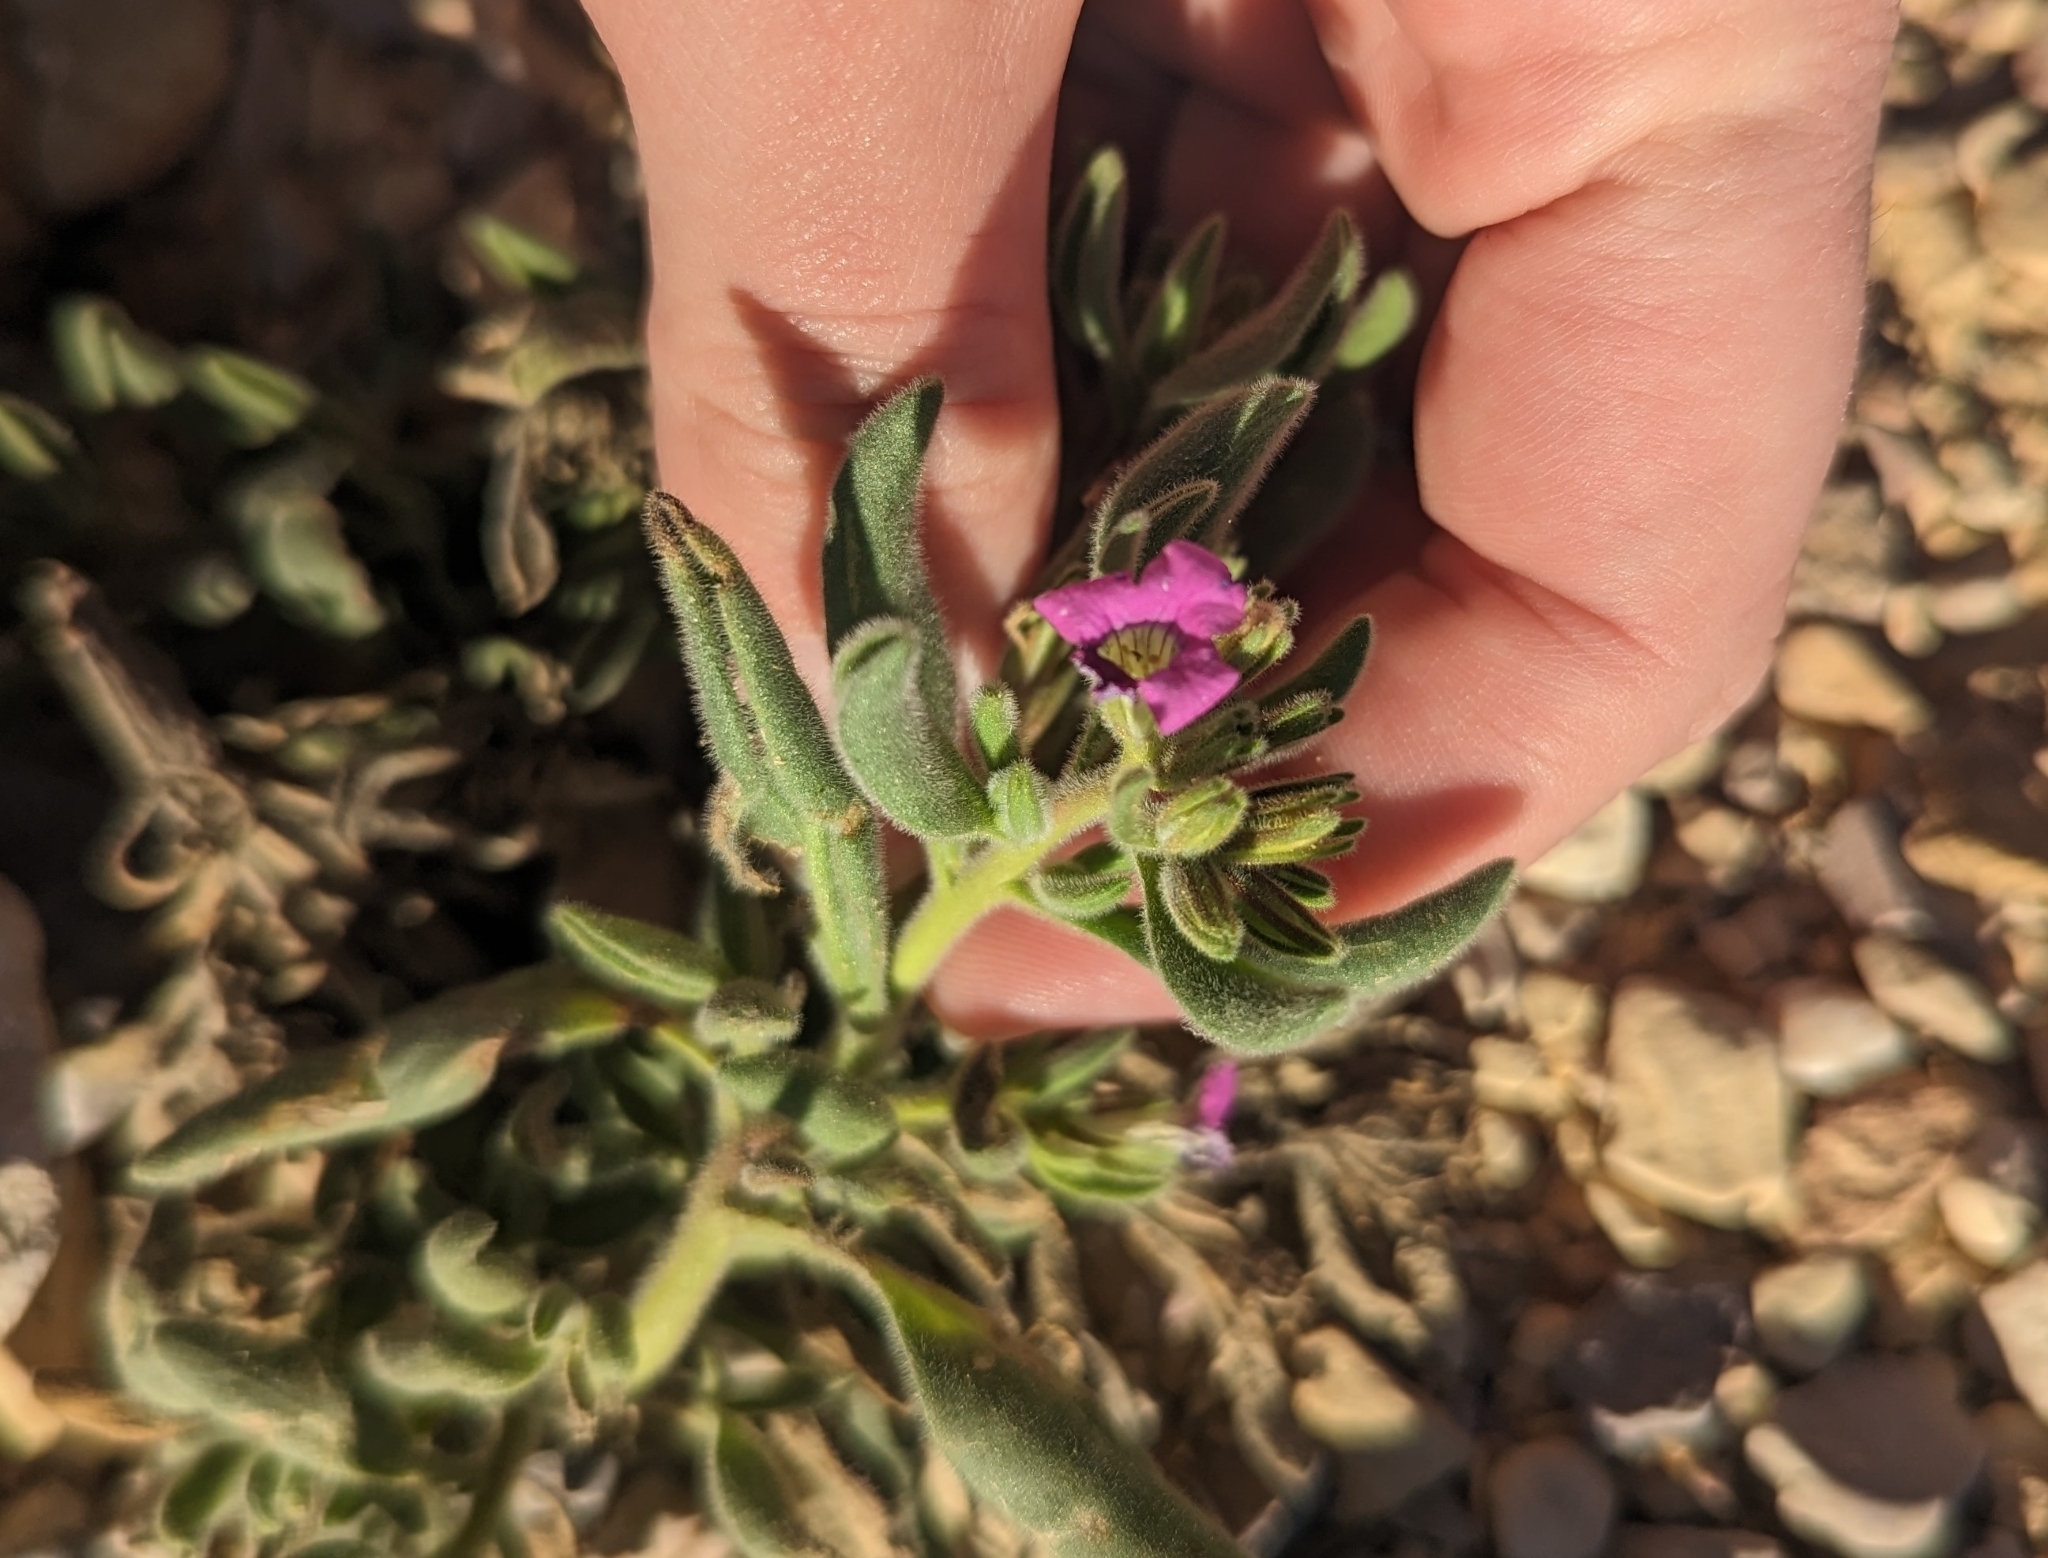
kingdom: Plantae
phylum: Tracheophyta
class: Magnoliopsida
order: Boraginales
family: Namaceae
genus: Nama
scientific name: Nama hispida
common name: Bristly nama
